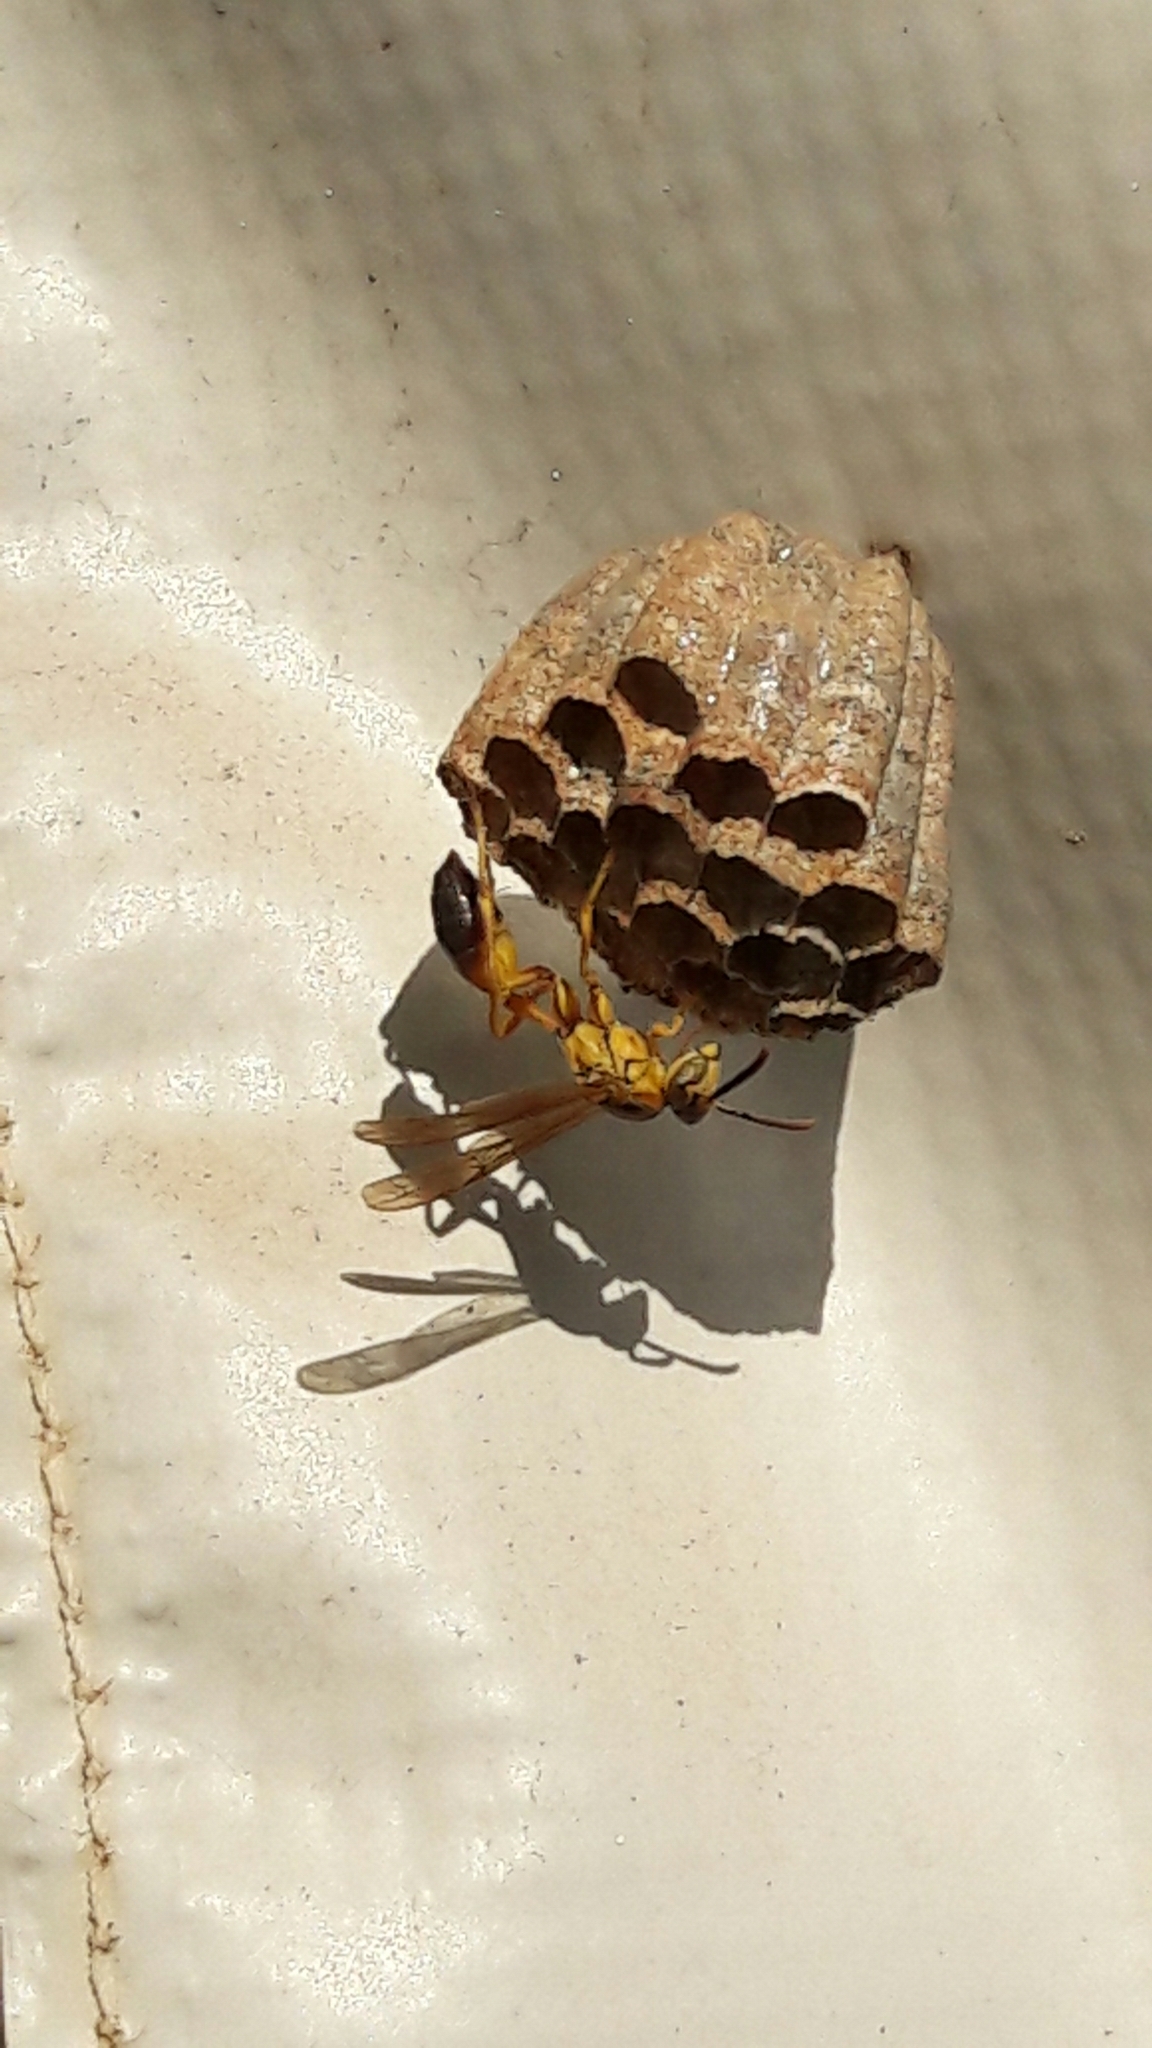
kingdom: Animalia
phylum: Arthropoda
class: Insecta
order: Hymenoptera
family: Vespidae
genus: Mischocyttarus
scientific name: Mischocyttarus cerberus
